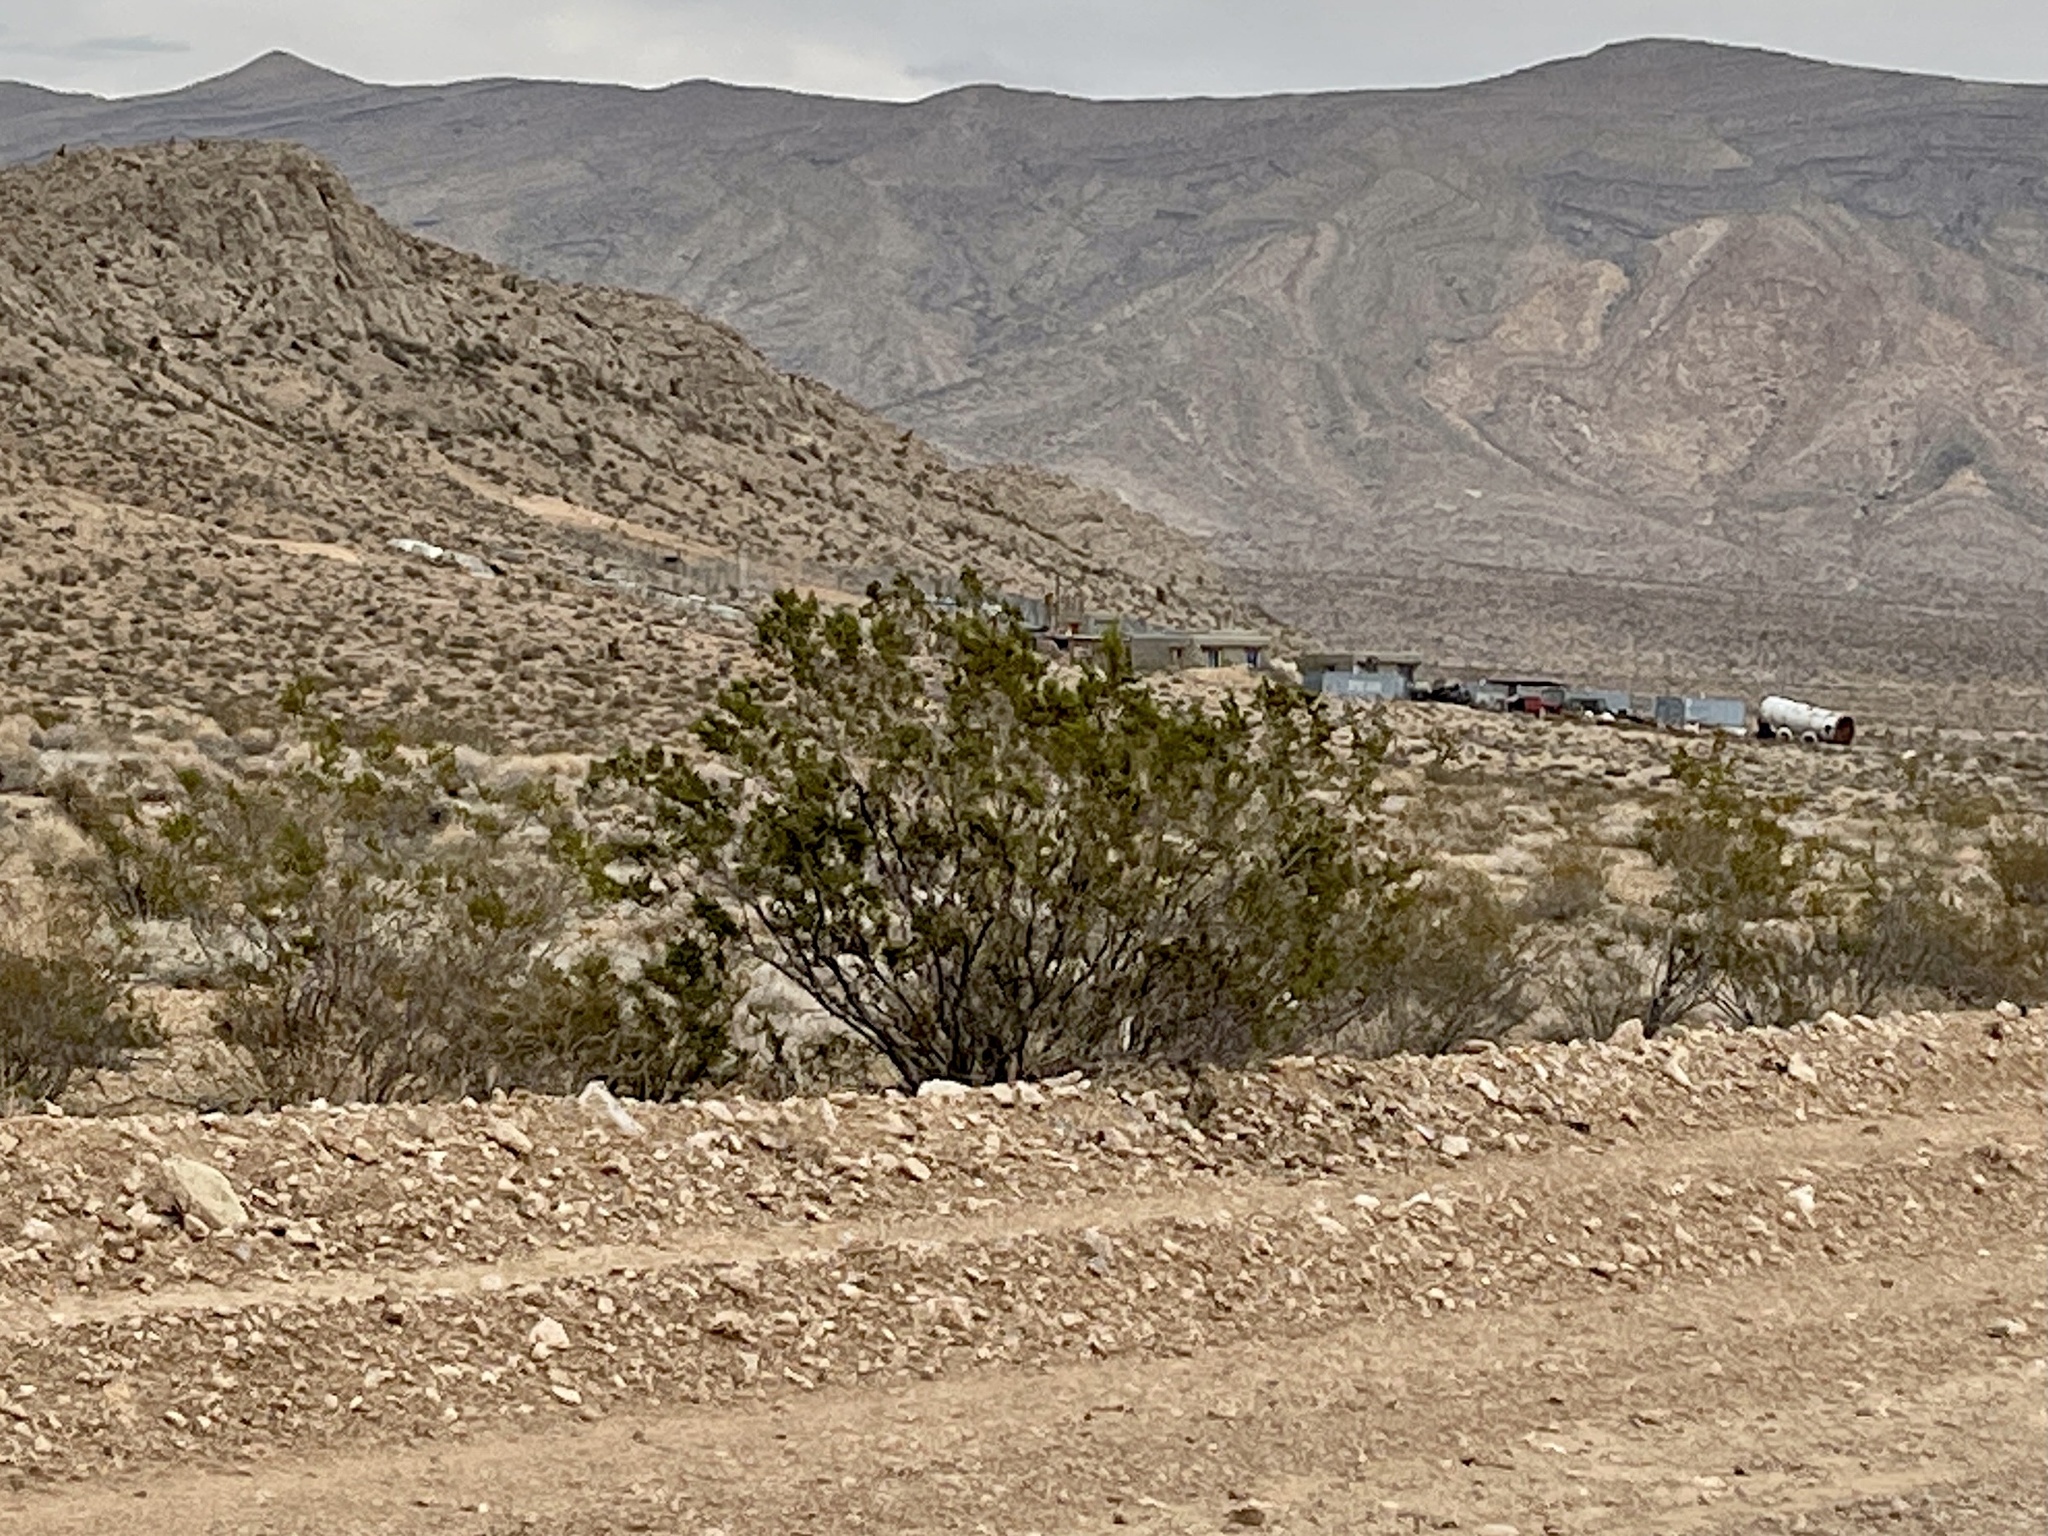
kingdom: Plantae
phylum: Tracheophyta
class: Magnoliopsida
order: Zygophyllales
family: Zygophyllaceae
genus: Larrea
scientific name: Larrea tridentata
